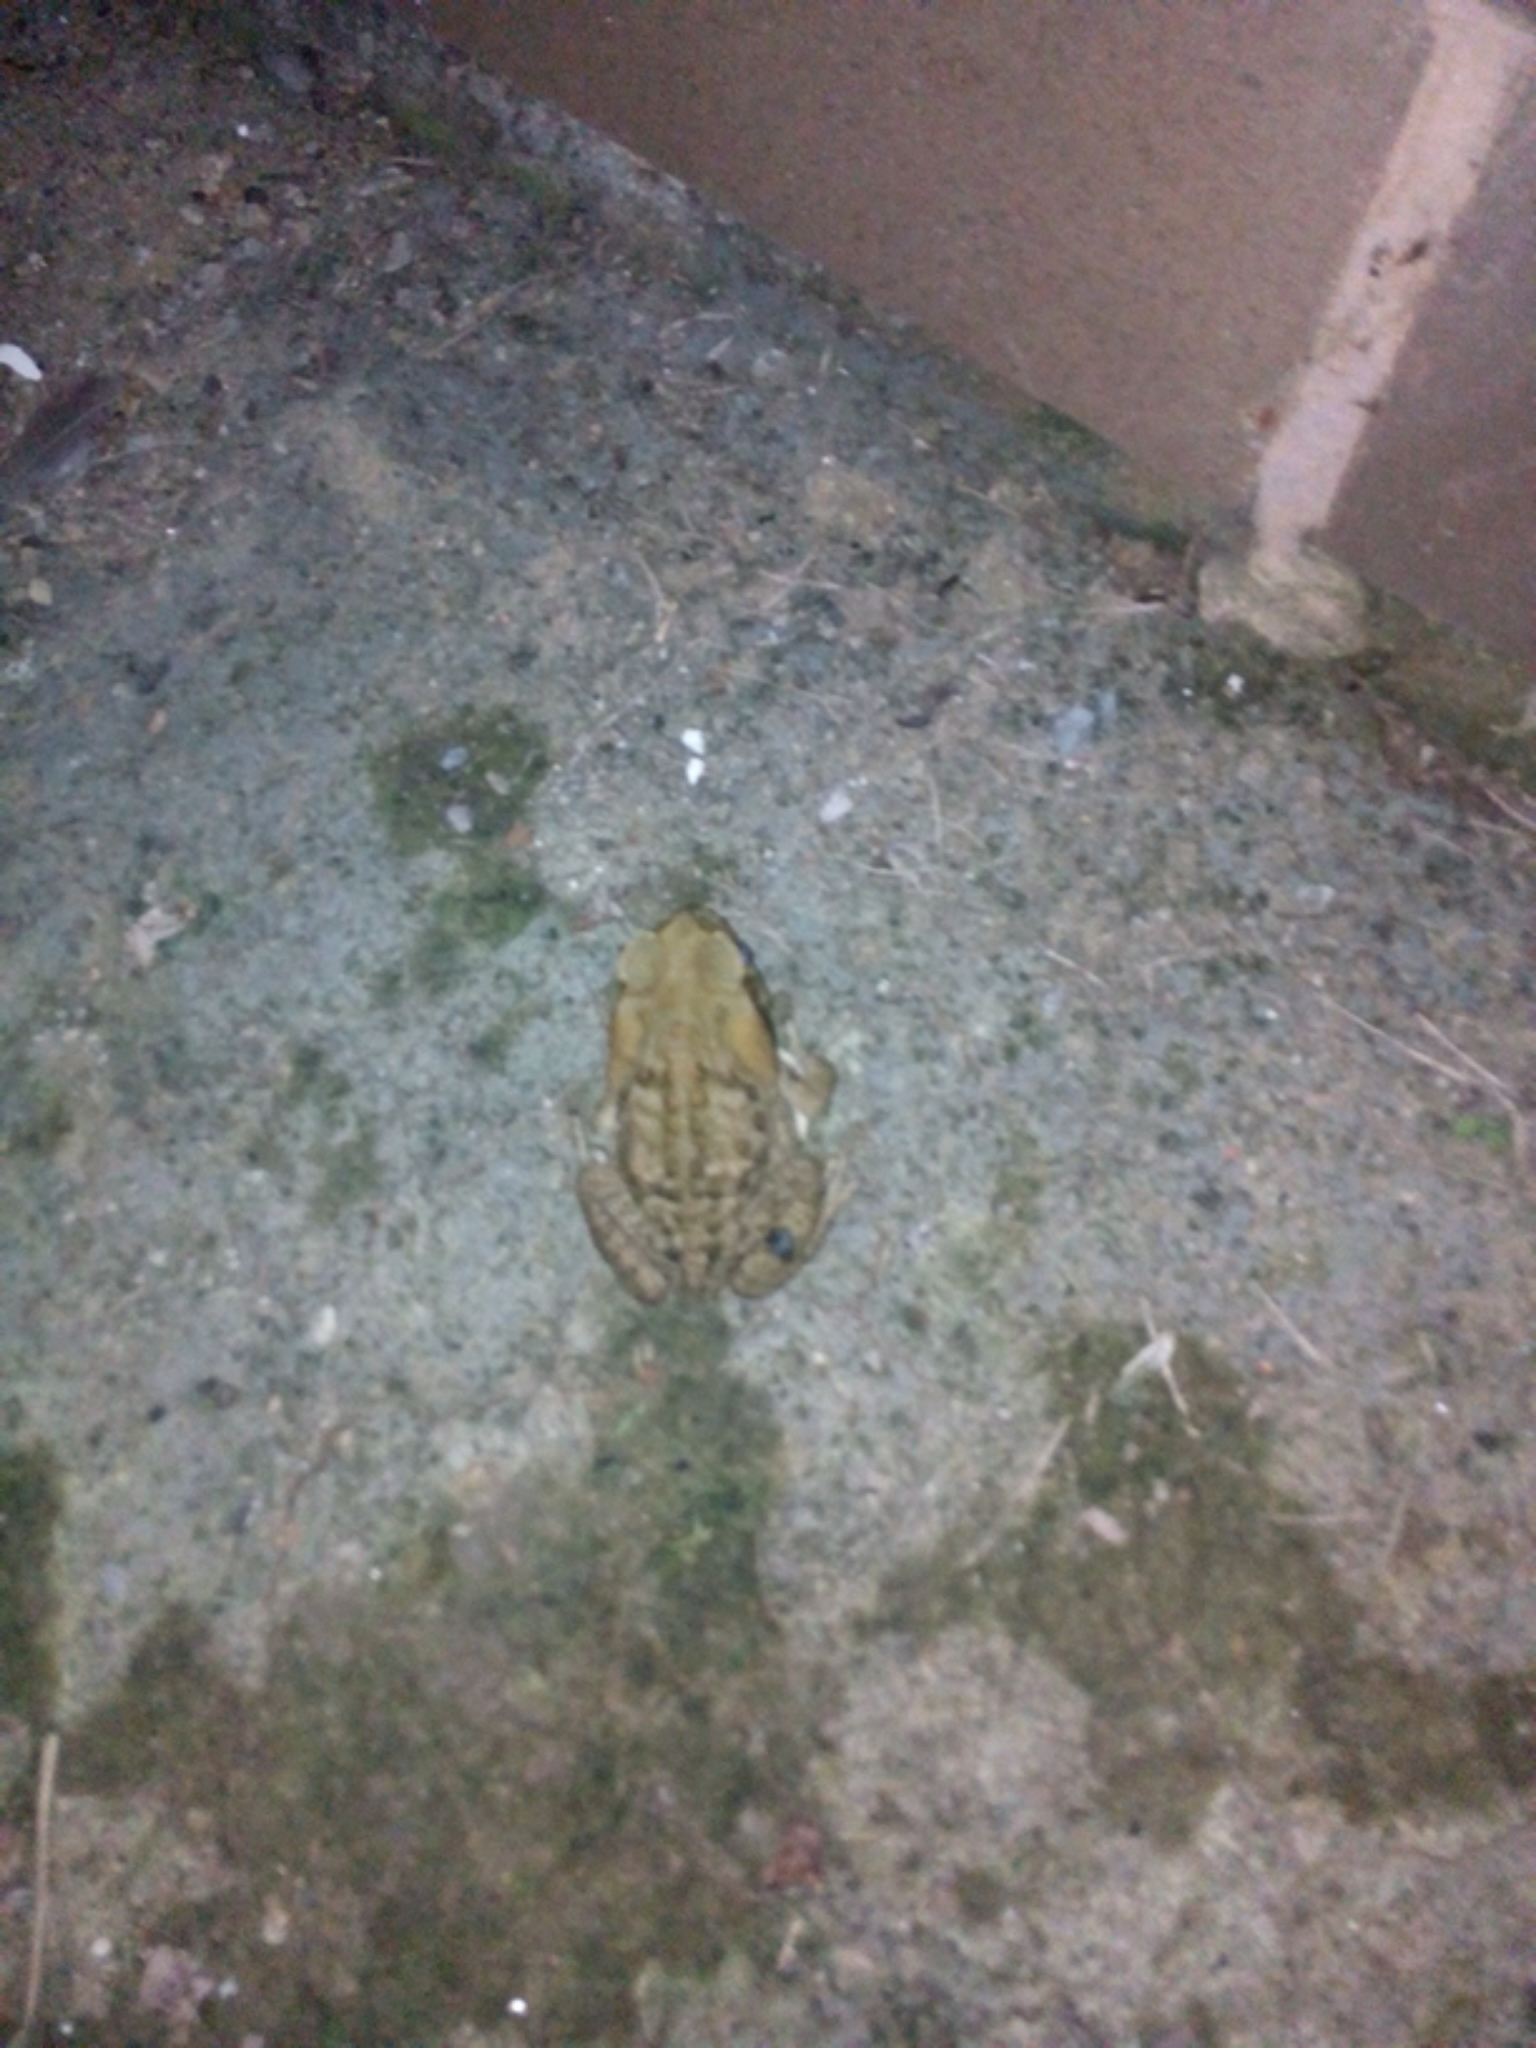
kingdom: Animalia
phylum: Chordata
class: Amphibia
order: Anura
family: Bufonidae
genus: Rhinella
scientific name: Rhinella horribilis
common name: Mesoamerican cane toad
